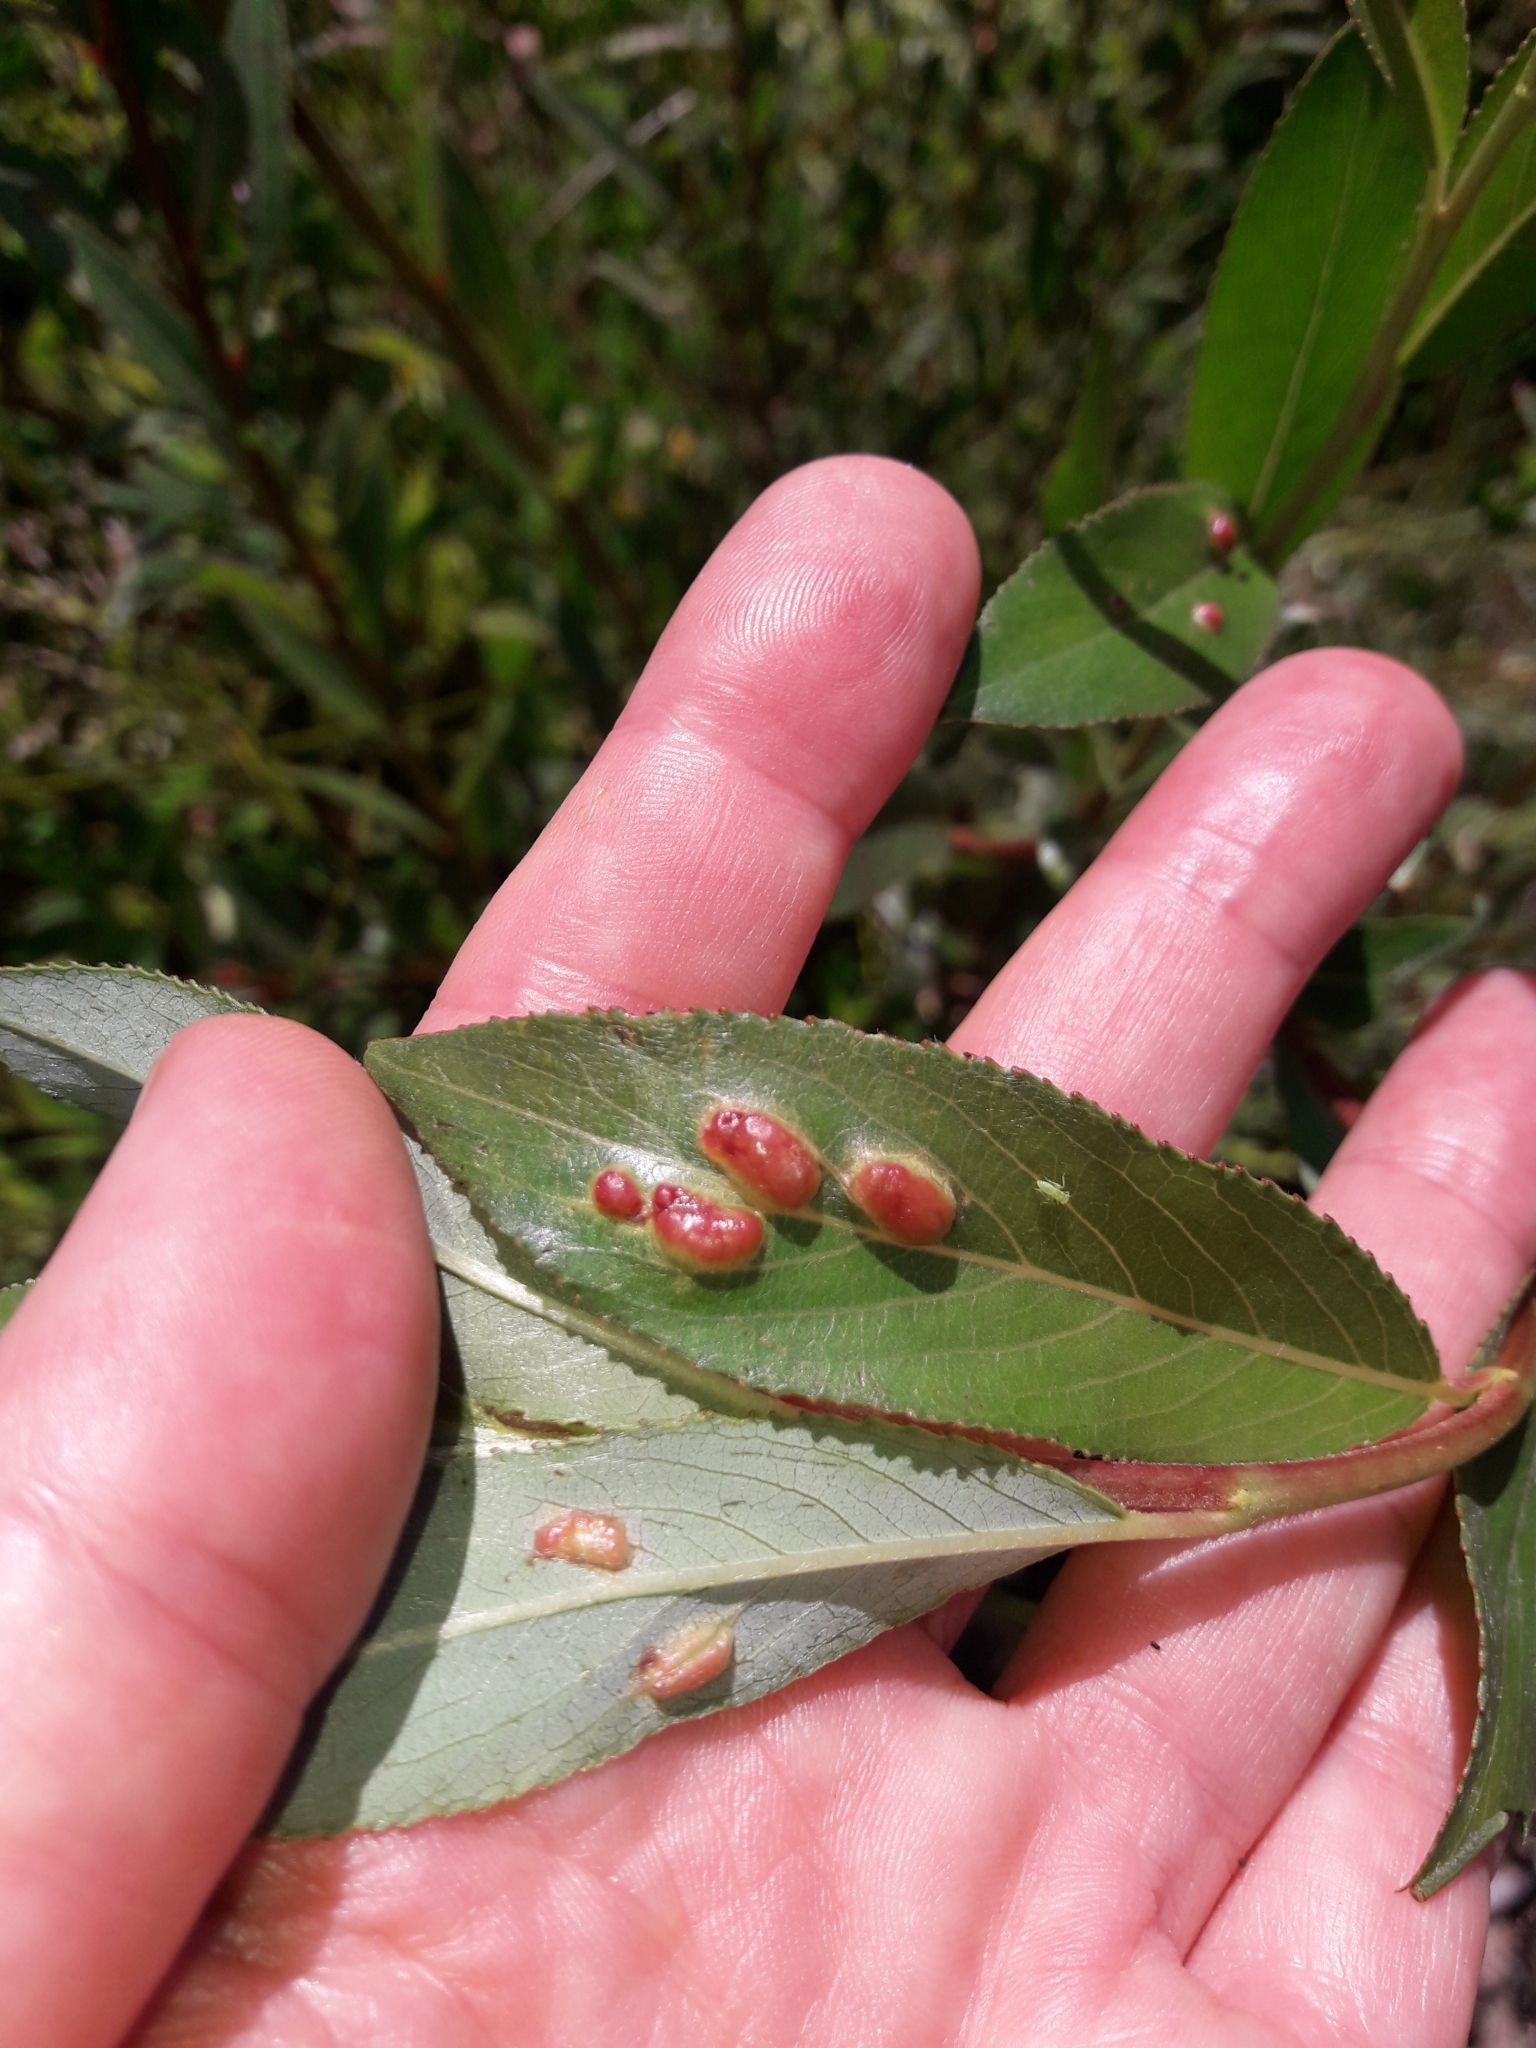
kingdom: Animalia
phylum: Arthropoda
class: Insecta
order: Hymenoptera
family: Tenthredinidae
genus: Pontania
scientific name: Pontania proxima
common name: Common sawfly
